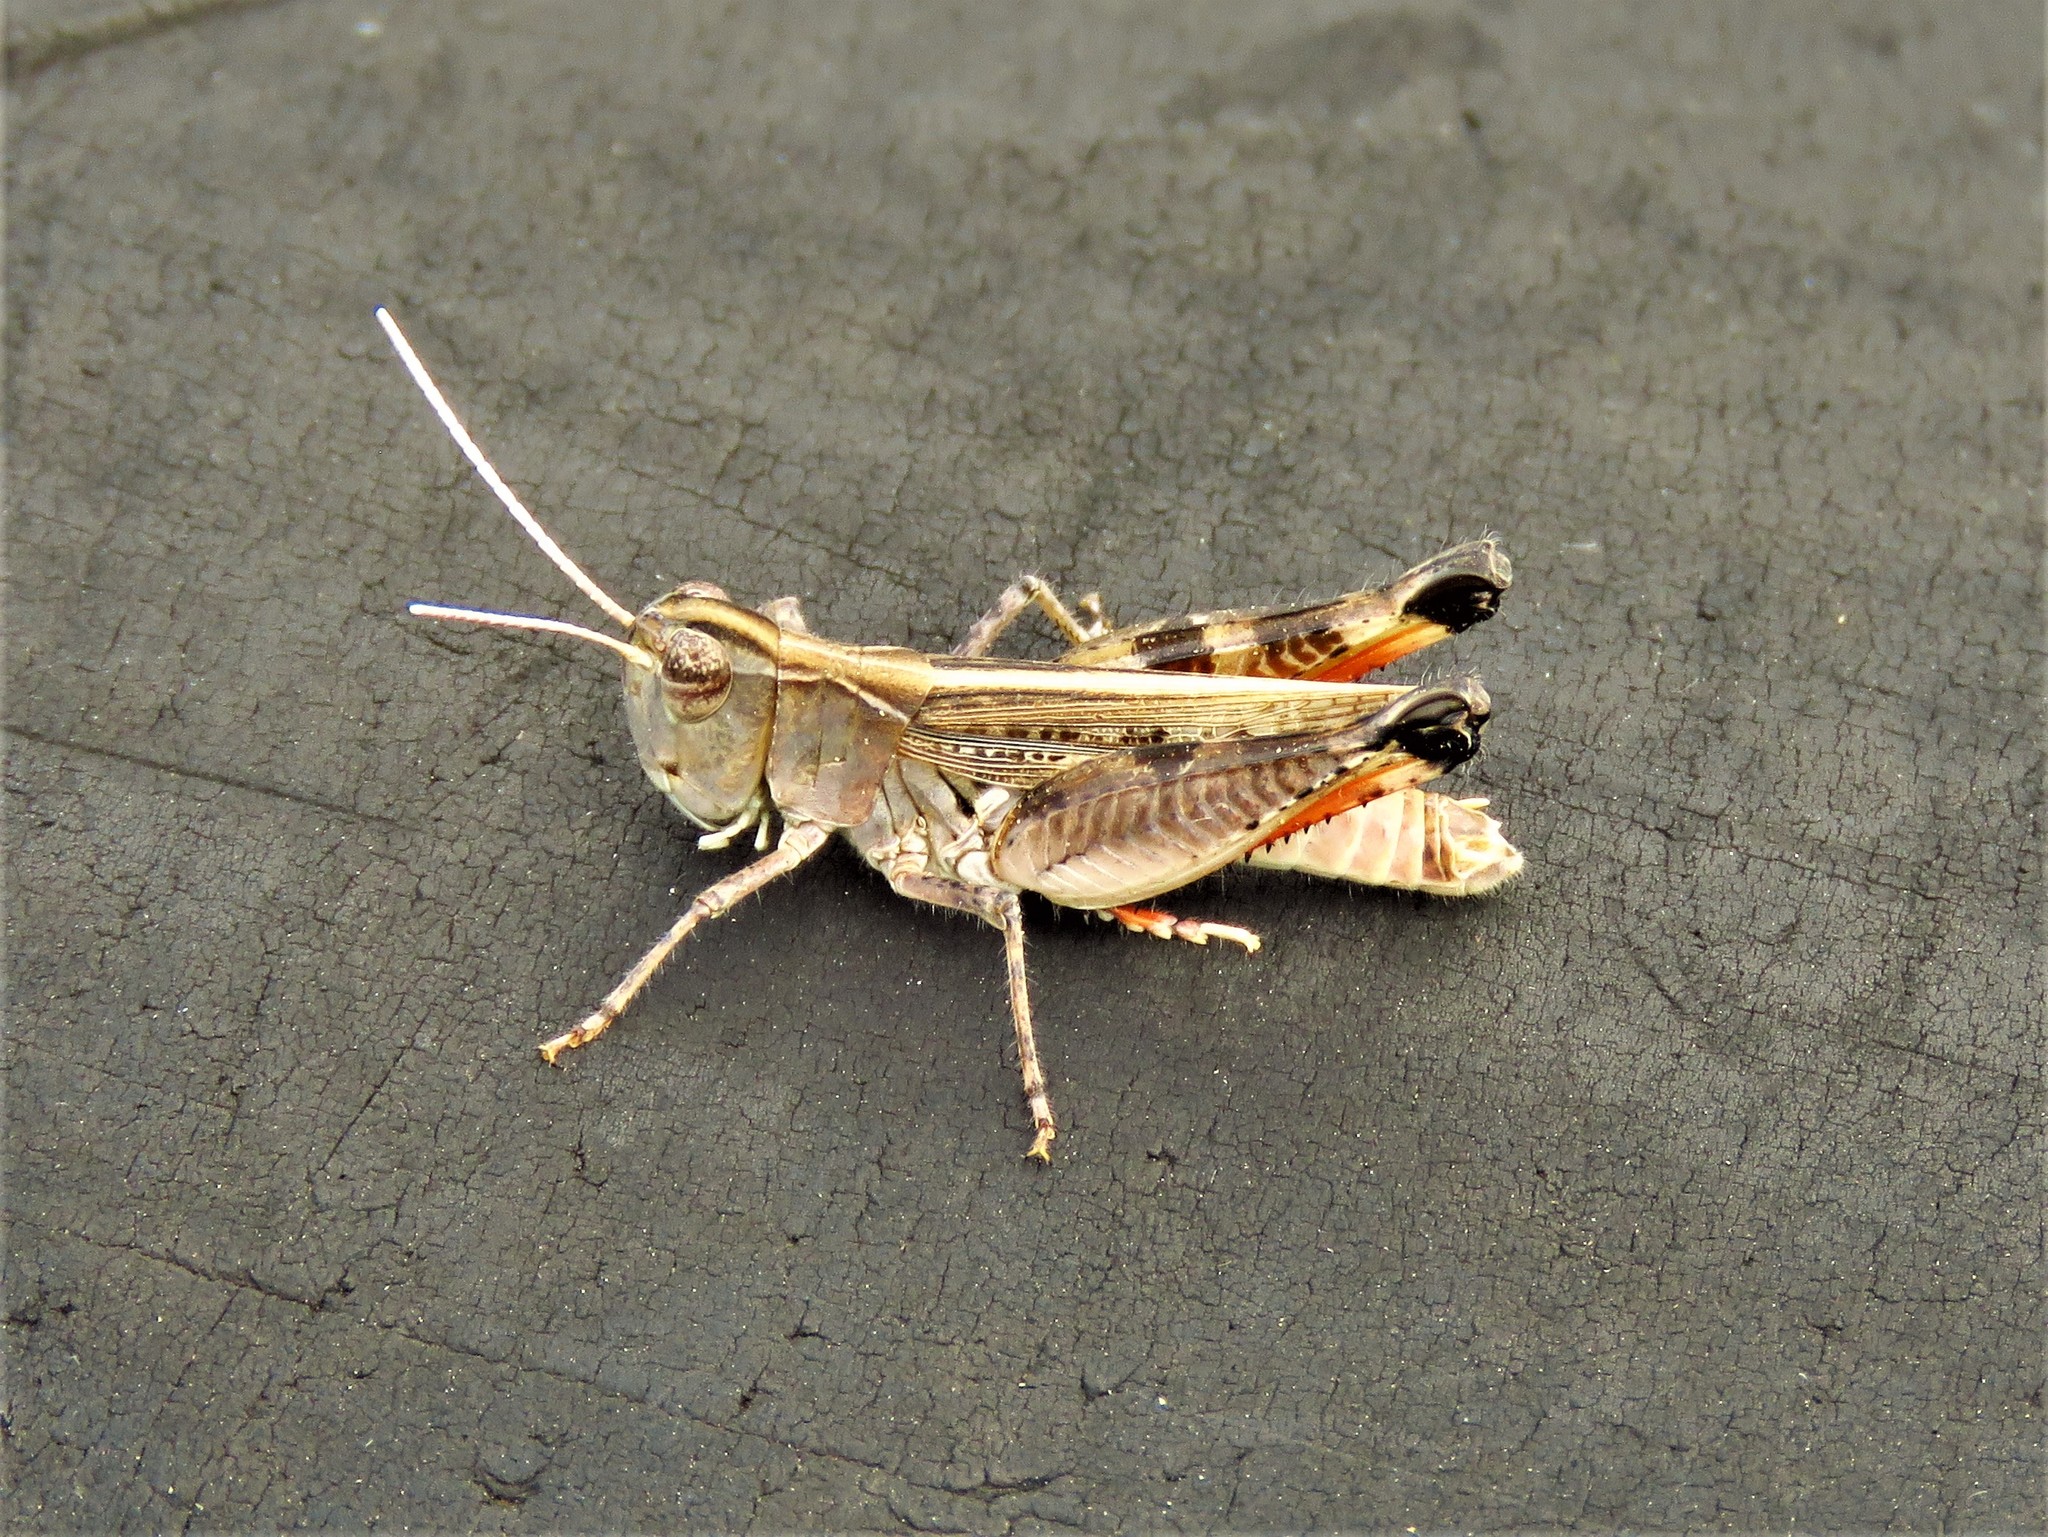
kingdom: Animalia
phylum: Arthropoda
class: Insecta
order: Orthoptera
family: Acrididae
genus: Ageneotettix
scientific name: Ageneotettix deorum
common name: White-whiskered grasshopper
